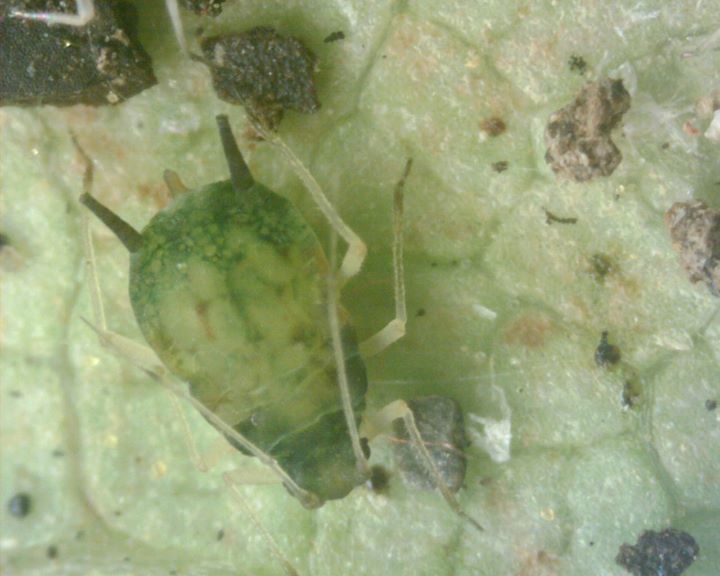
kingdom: Animalia
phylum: Arthropoda
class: Insecta
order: Hemiptera
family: Aphididae
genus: Aphis
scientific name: Aphis gossypii
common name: Melon aphid
